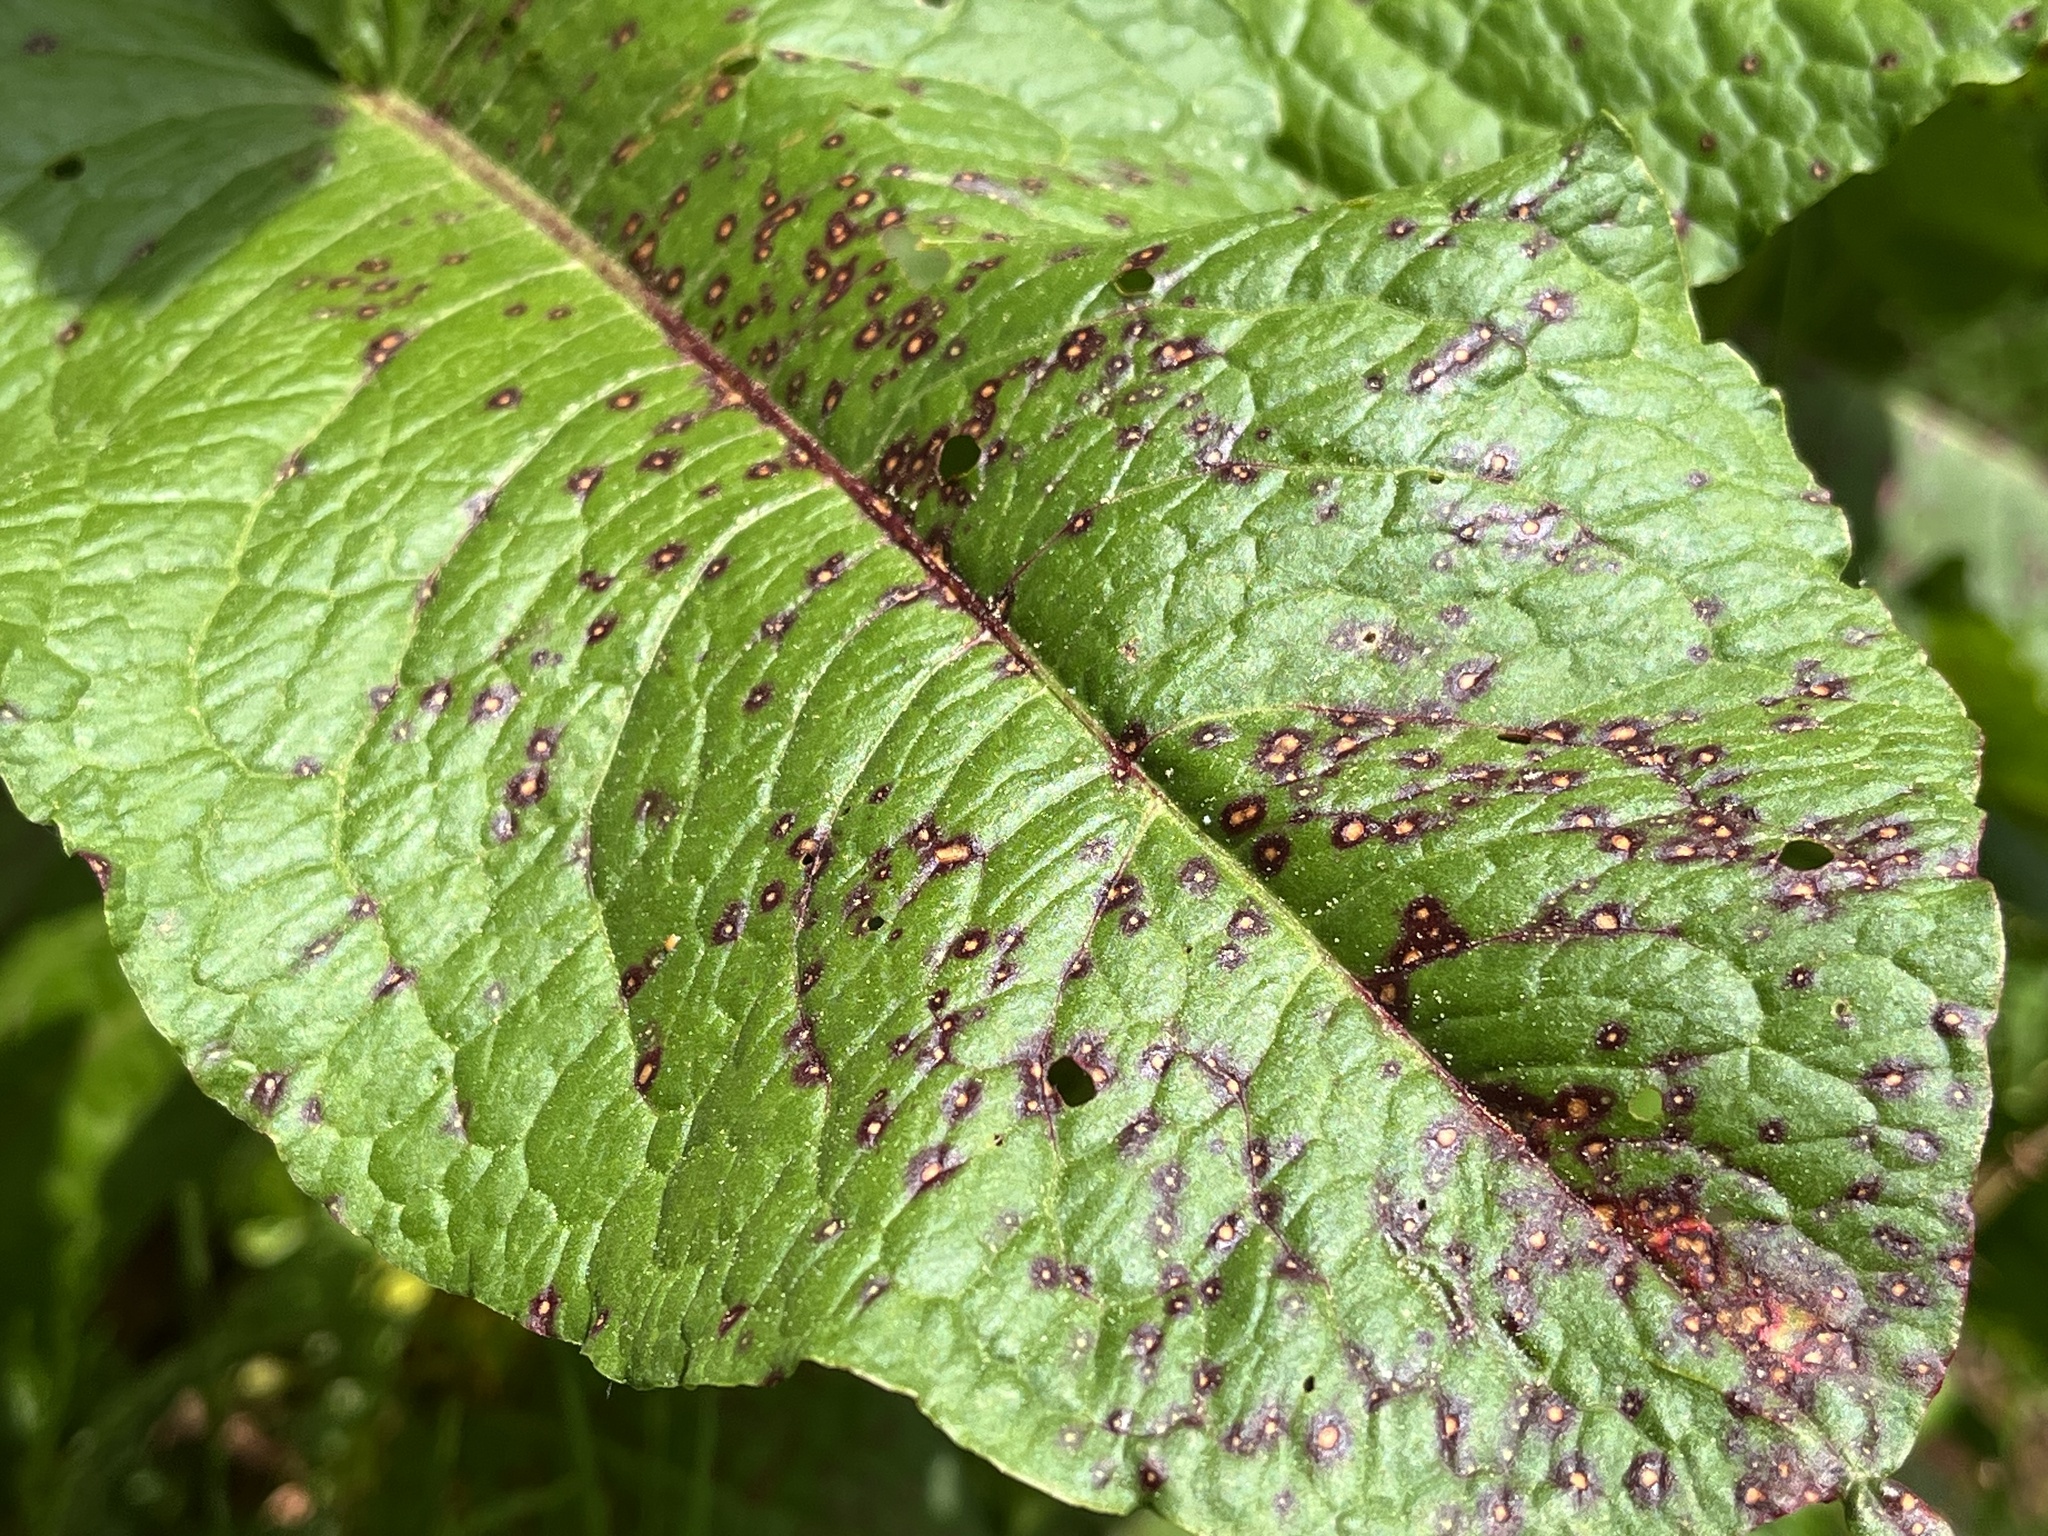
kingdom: Fungi
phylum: Ascomycota
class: Dothideomycetes
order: Mycosphaerellales
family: Mycosphaerellaceae
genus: Ramularia
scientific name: Ramularia rubella
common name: Red dock spot
